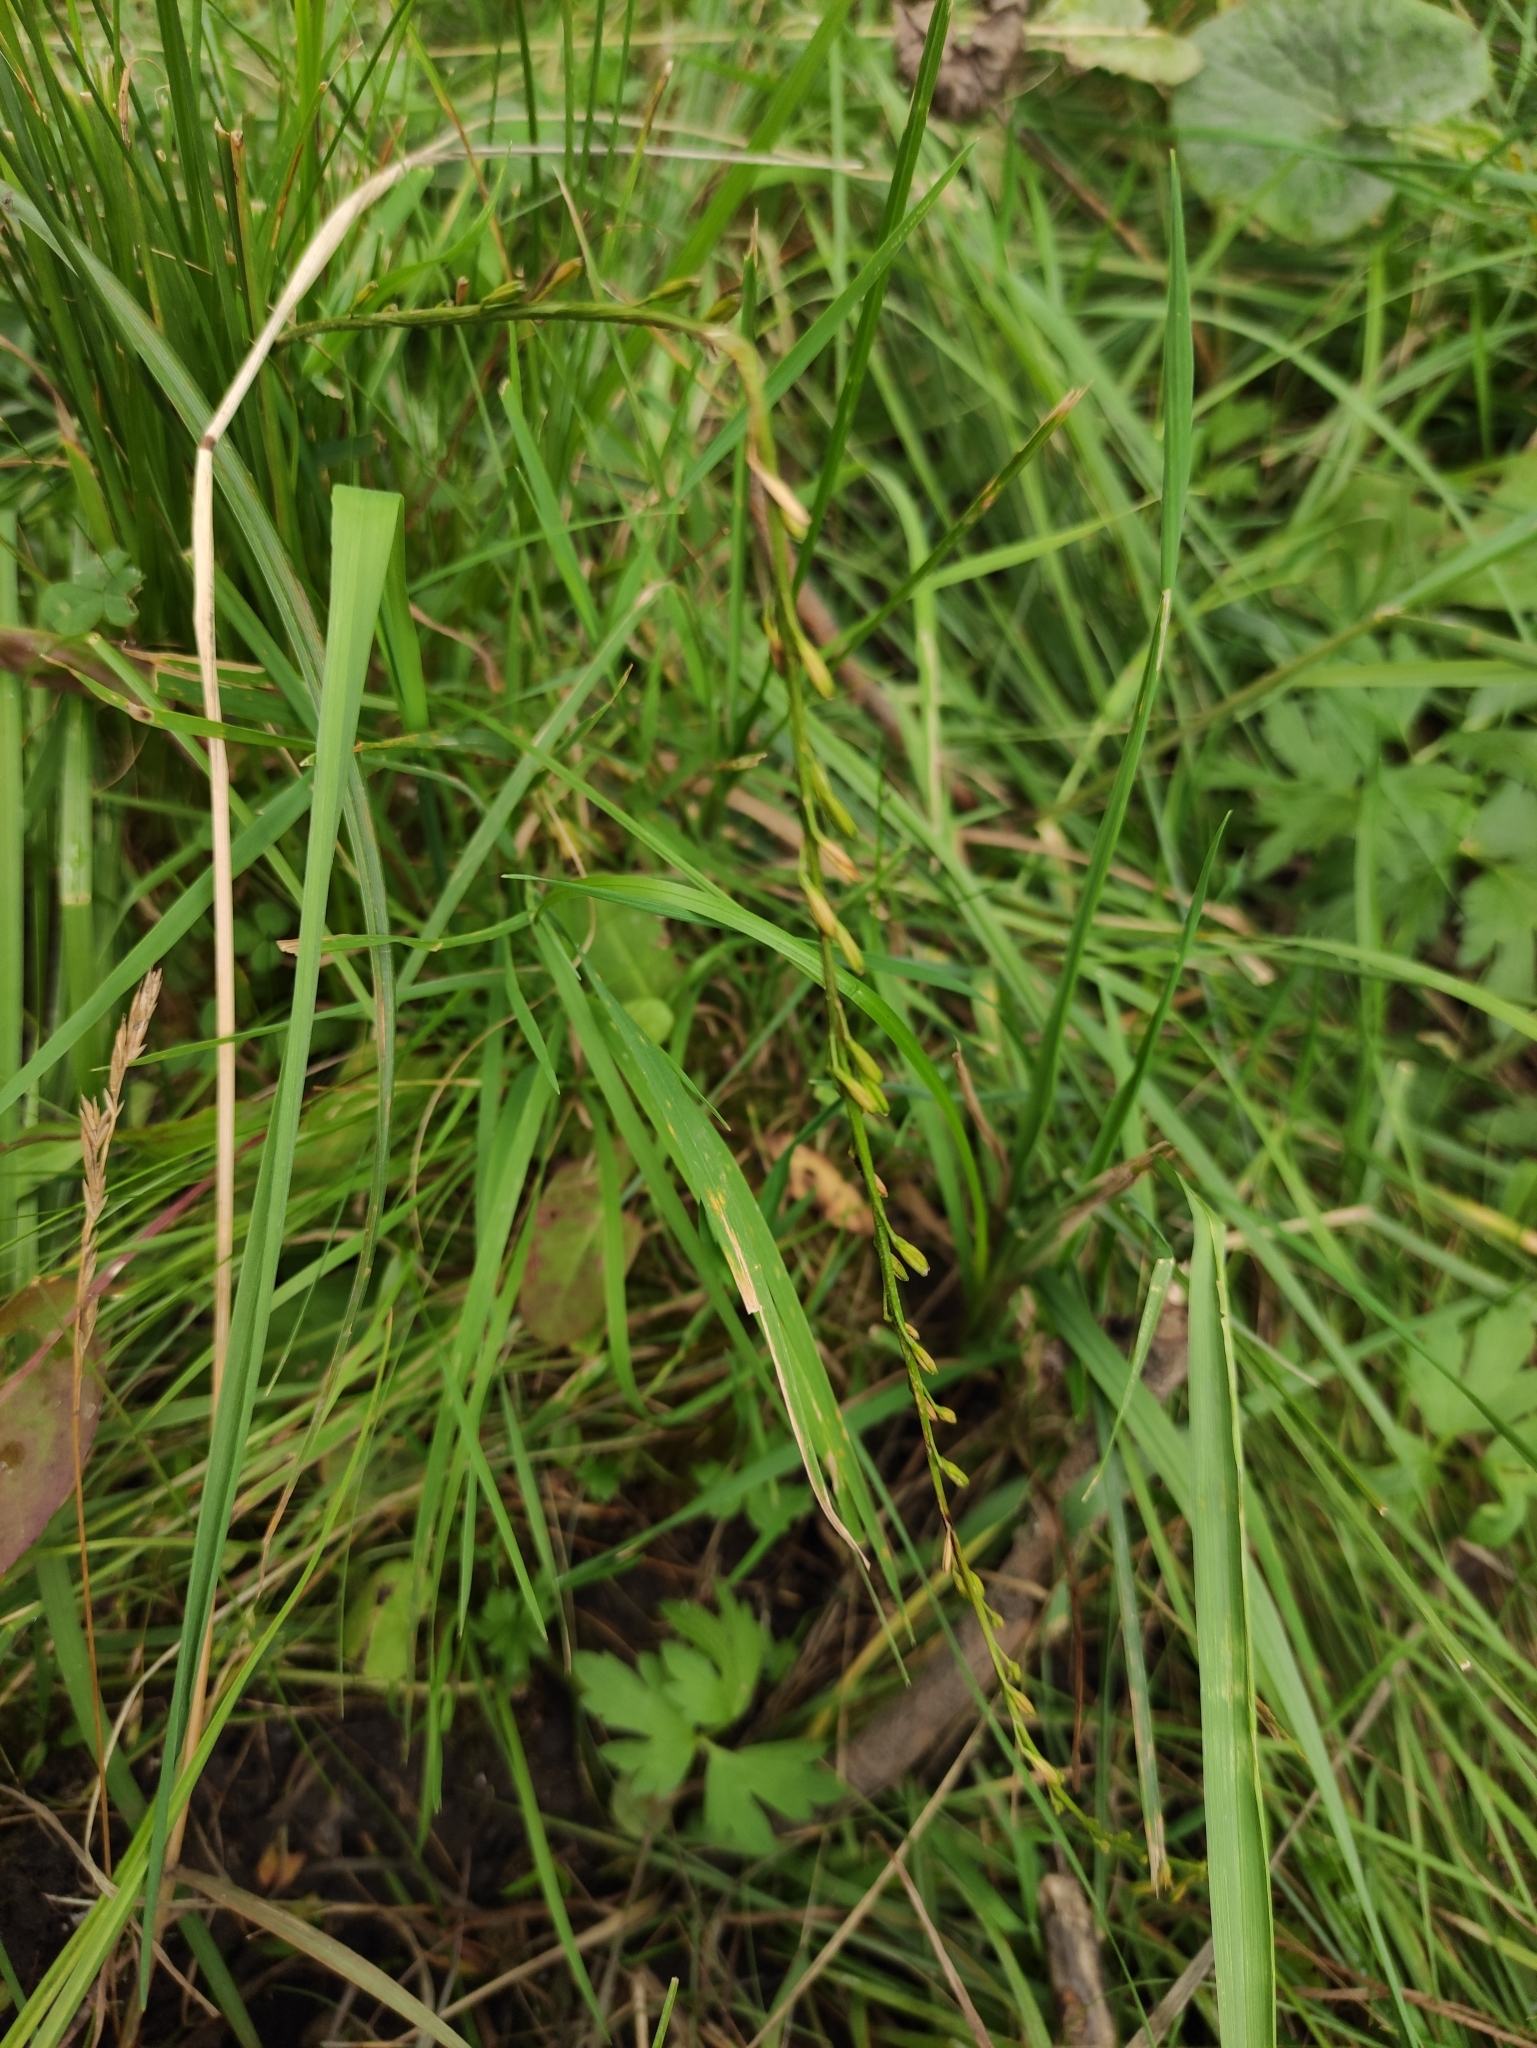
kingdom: Plantae
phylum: Tracheophyta
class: Liliopsida
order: Alismatales
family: Juncaginaceae
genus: Triglochin
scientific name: Triglochin palustris
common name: Marsh arrowgrass
